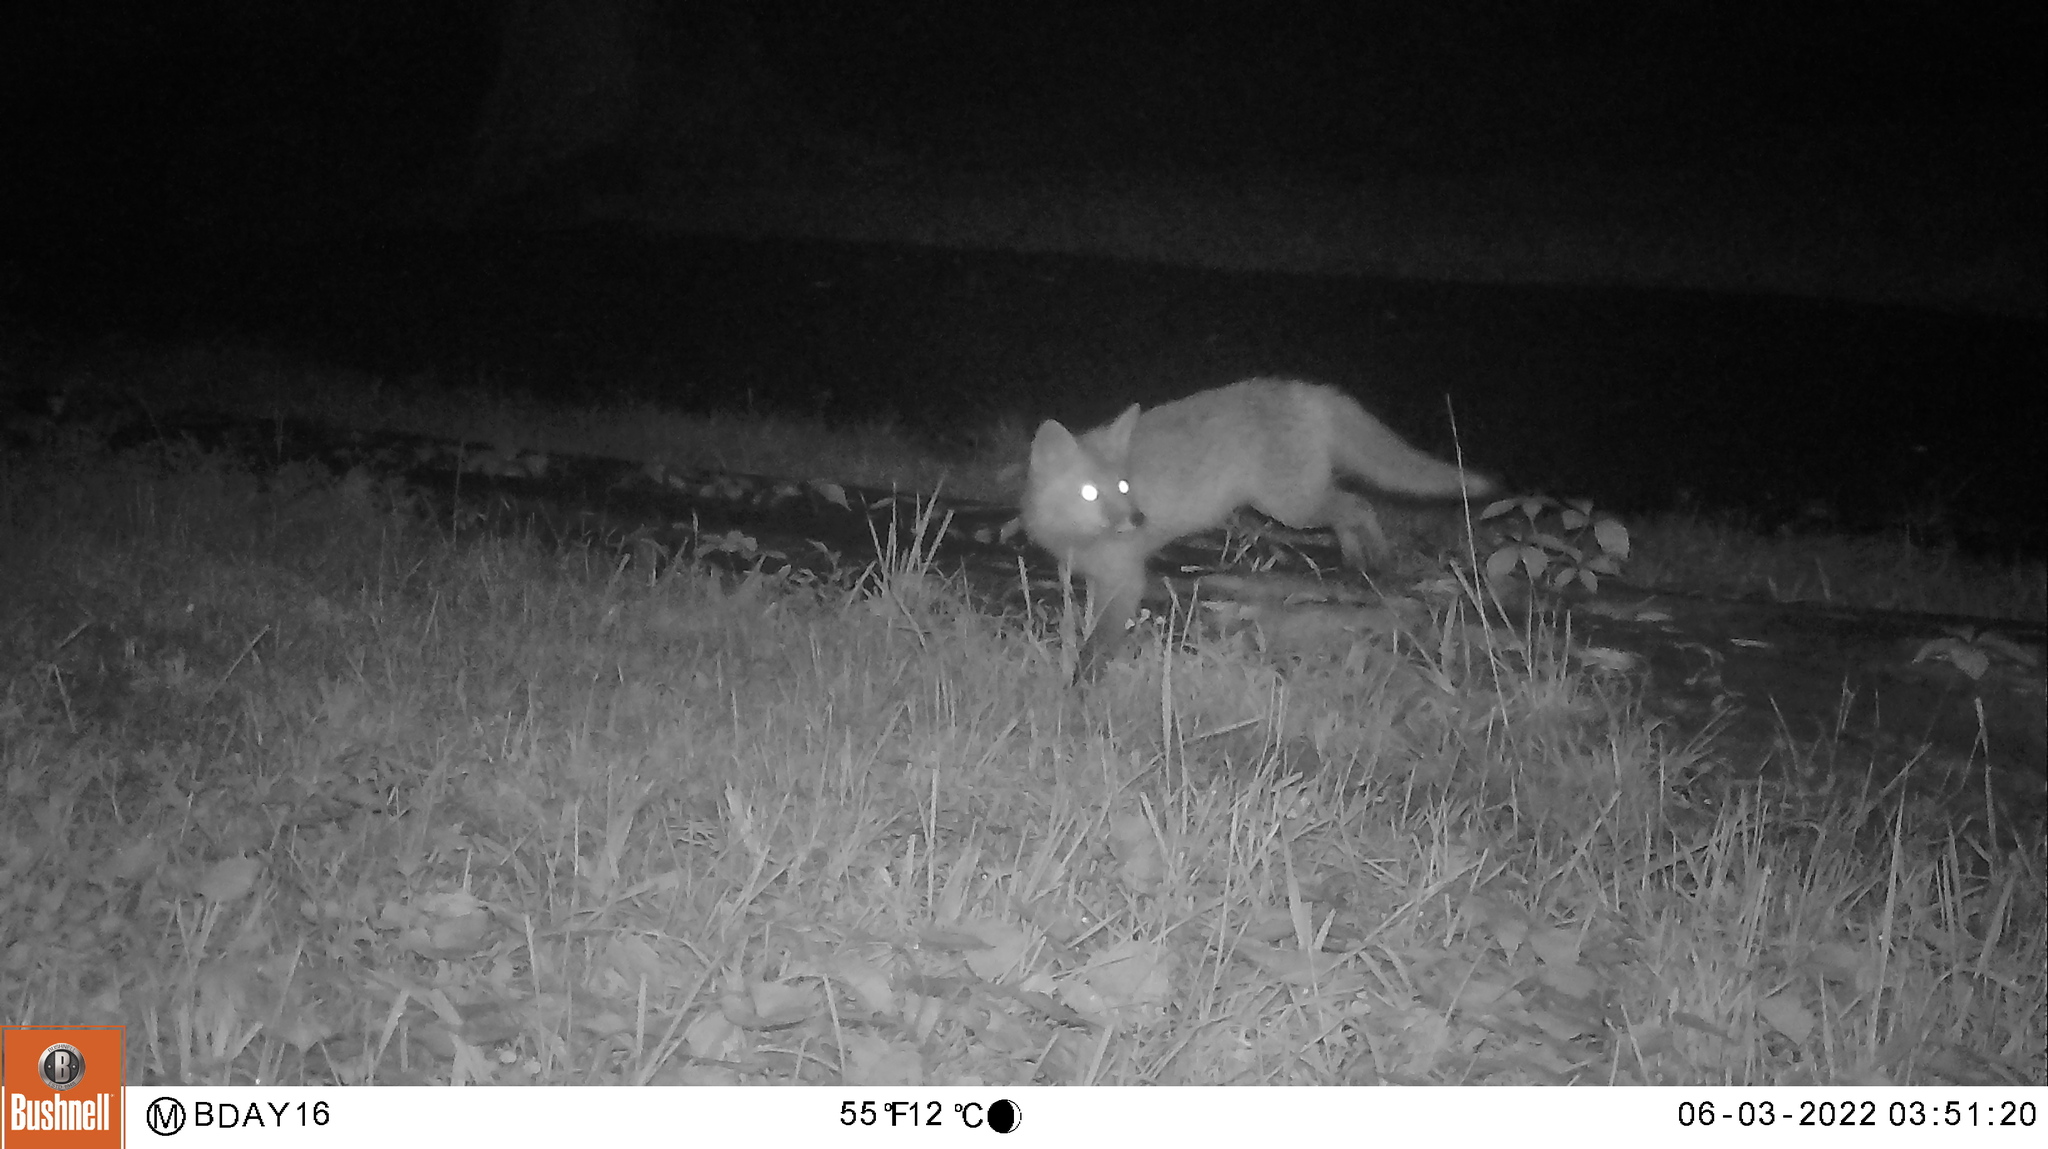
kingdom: Animalia
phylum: Chordata
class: Mammalia
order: Carnivora
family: Canidae
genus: Vulpes
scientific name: Vulpes vulpes
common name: Red fox
